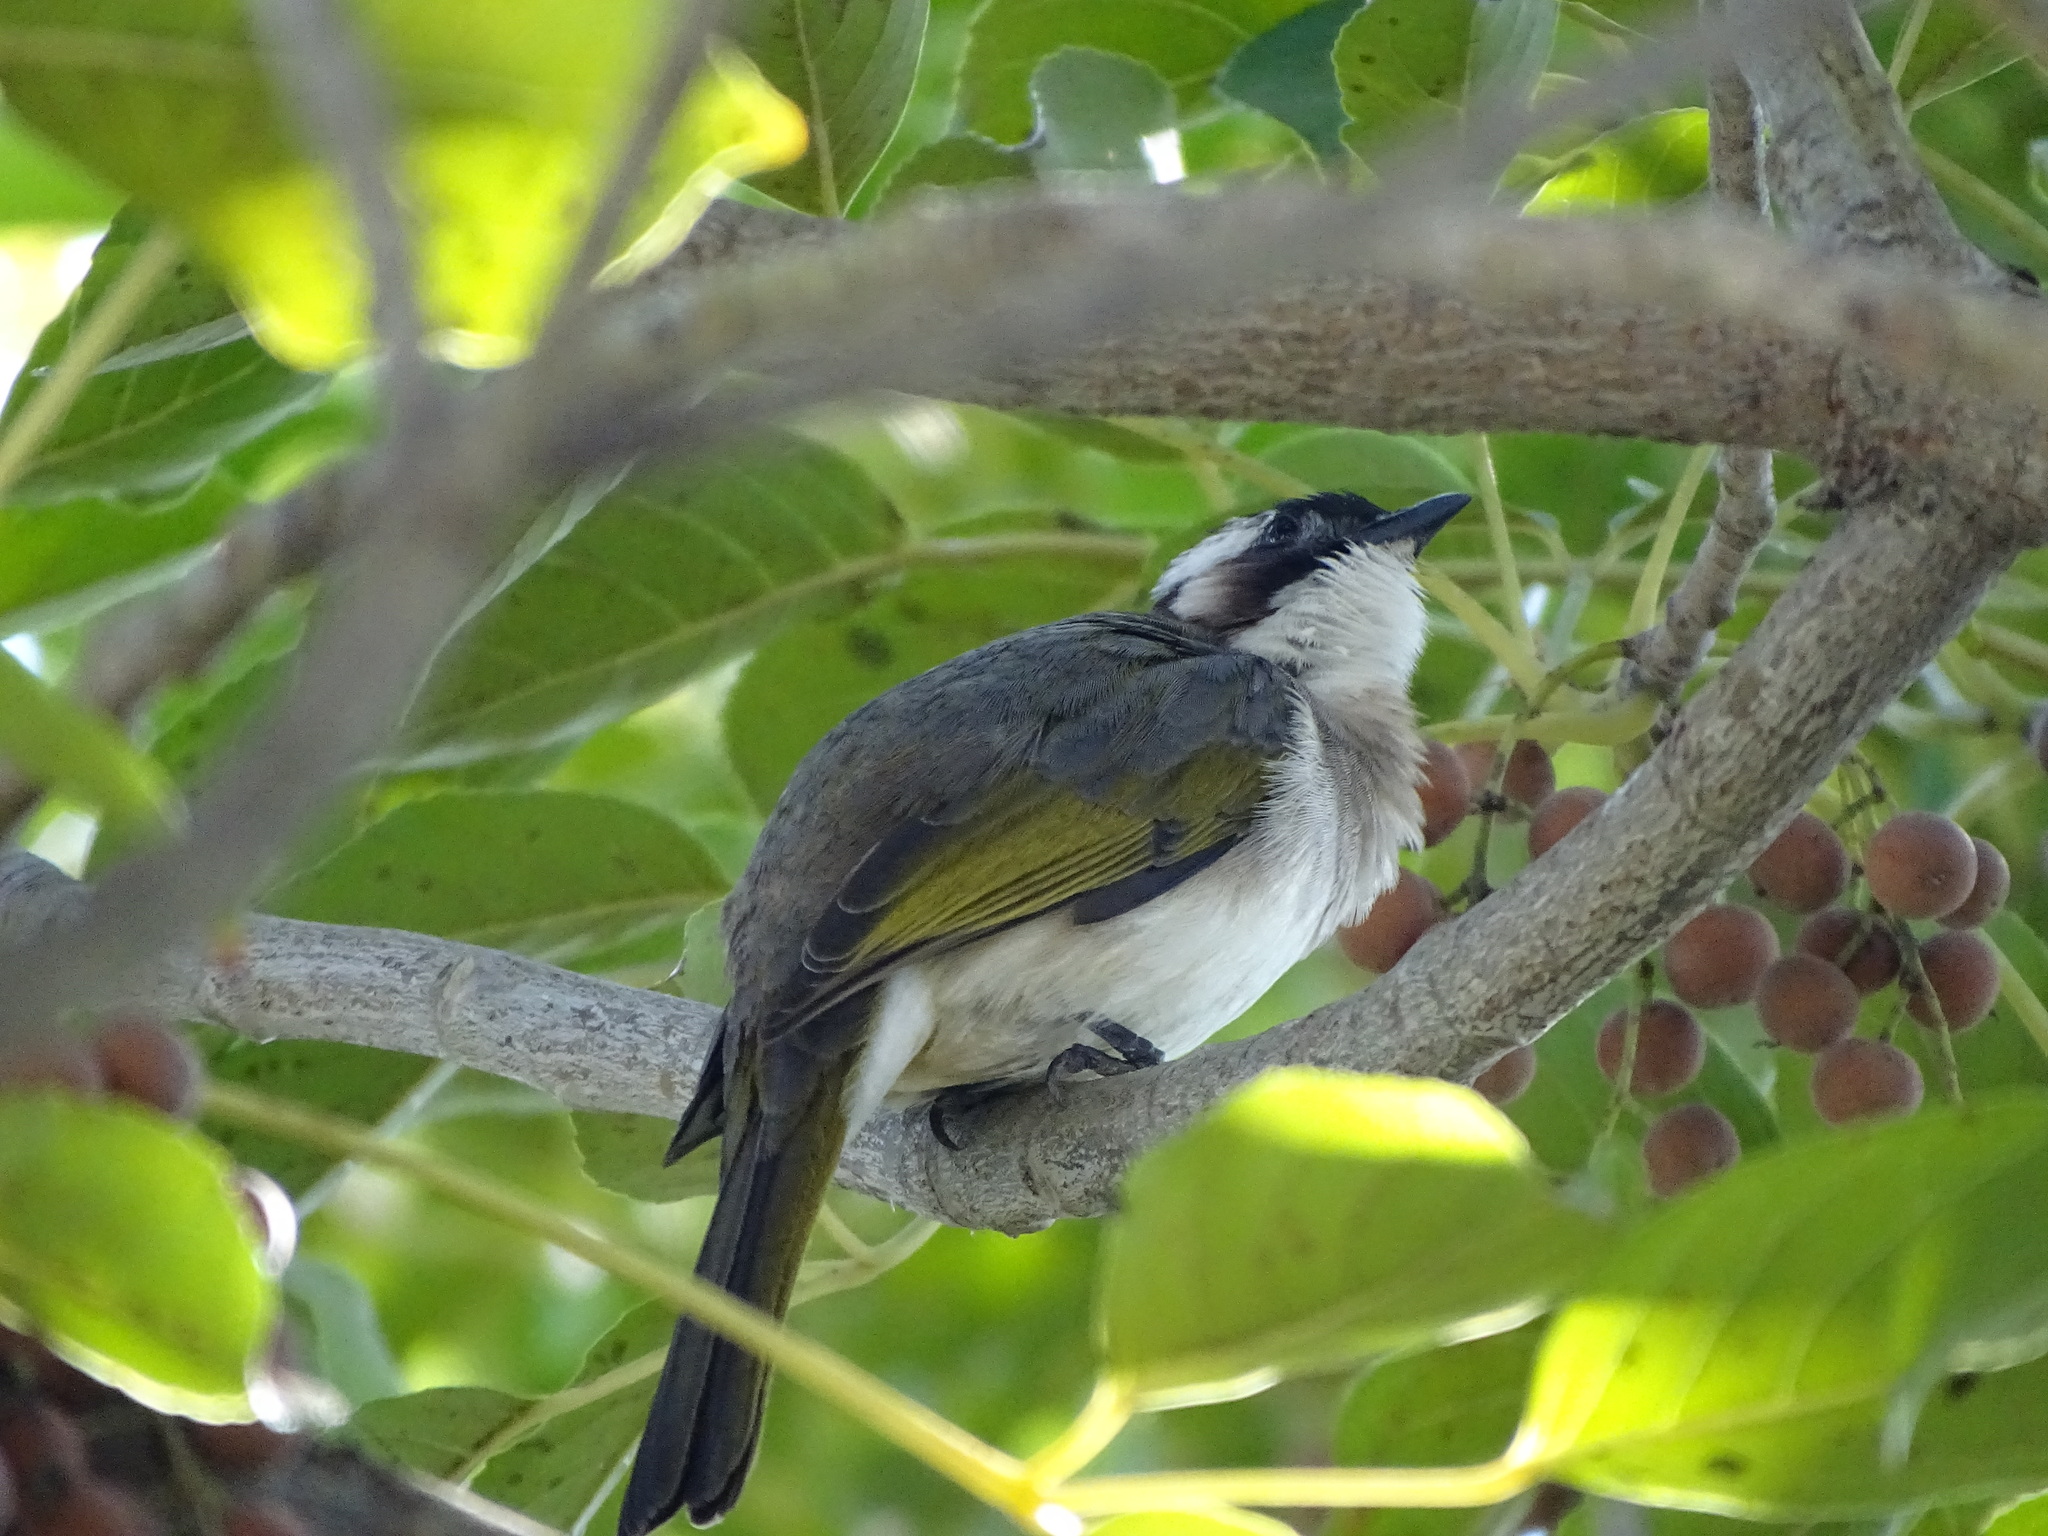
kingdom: Animalia
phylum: Chordata
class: Aves
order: Passeriformes
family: Pycnonotidae
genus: Pycnonotus
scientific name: Pycnonotus sinensis
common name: Light-vented bulbul
